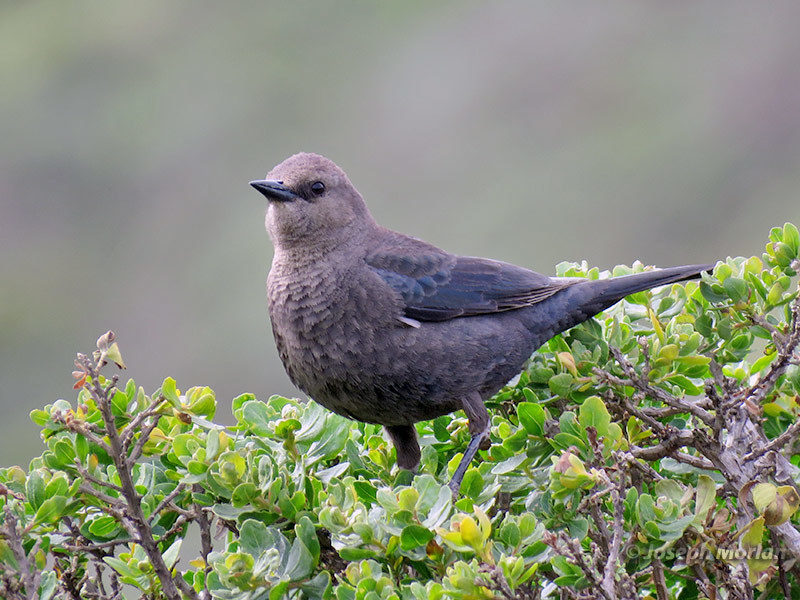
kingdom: Animalia
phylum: Chordata
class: Aves
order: Passeriformes
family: Icteridae
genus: Euphagus
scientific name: Euphagus cyanocephalus
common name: Brewer's blackbird
